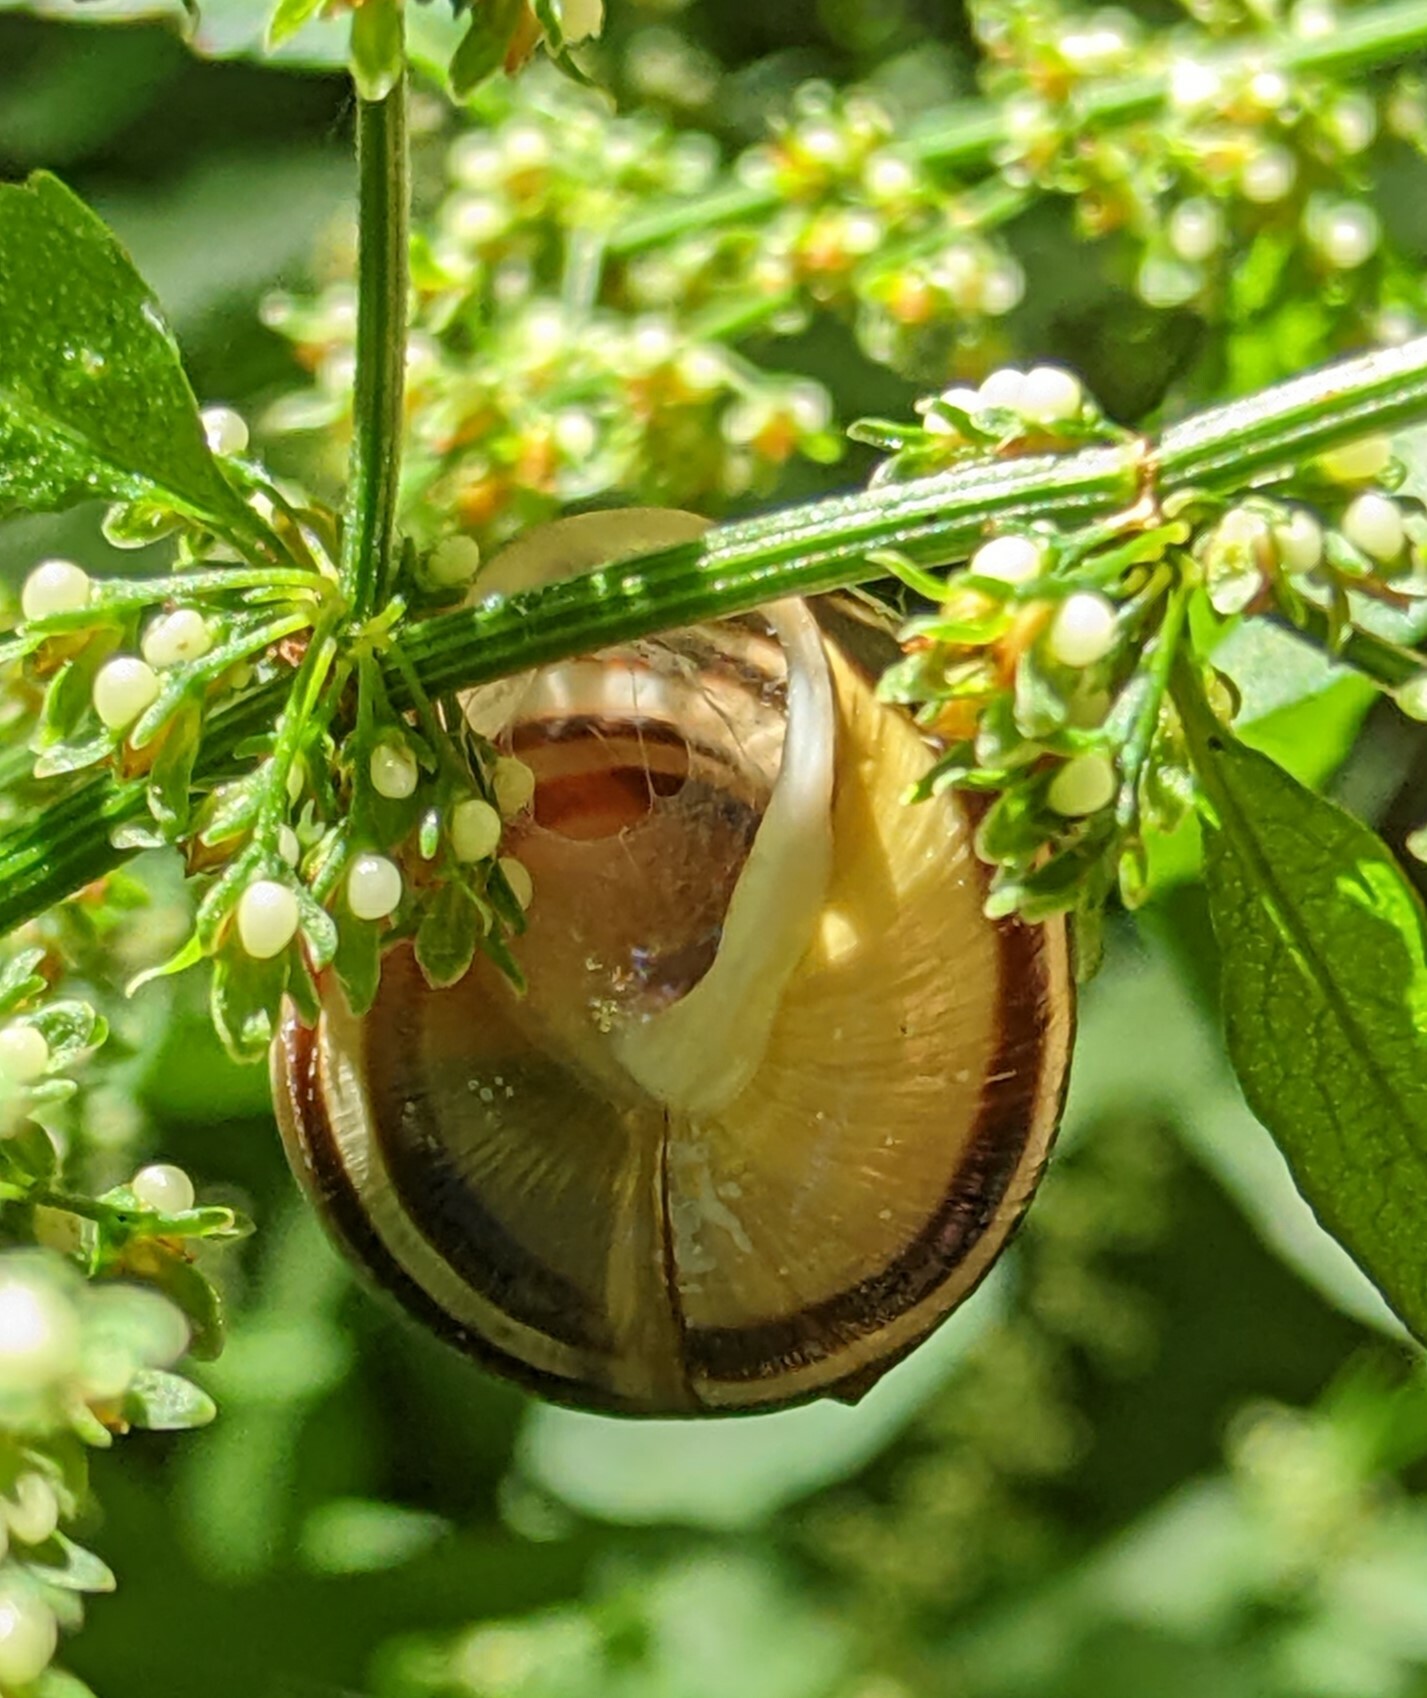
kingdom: Animalia
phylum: Mollusca
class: Gastropoda
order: Stylommatophora
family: Helicidae
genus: Cepaea
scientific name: Cepaea hortensis
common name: White-lip gardensnail
